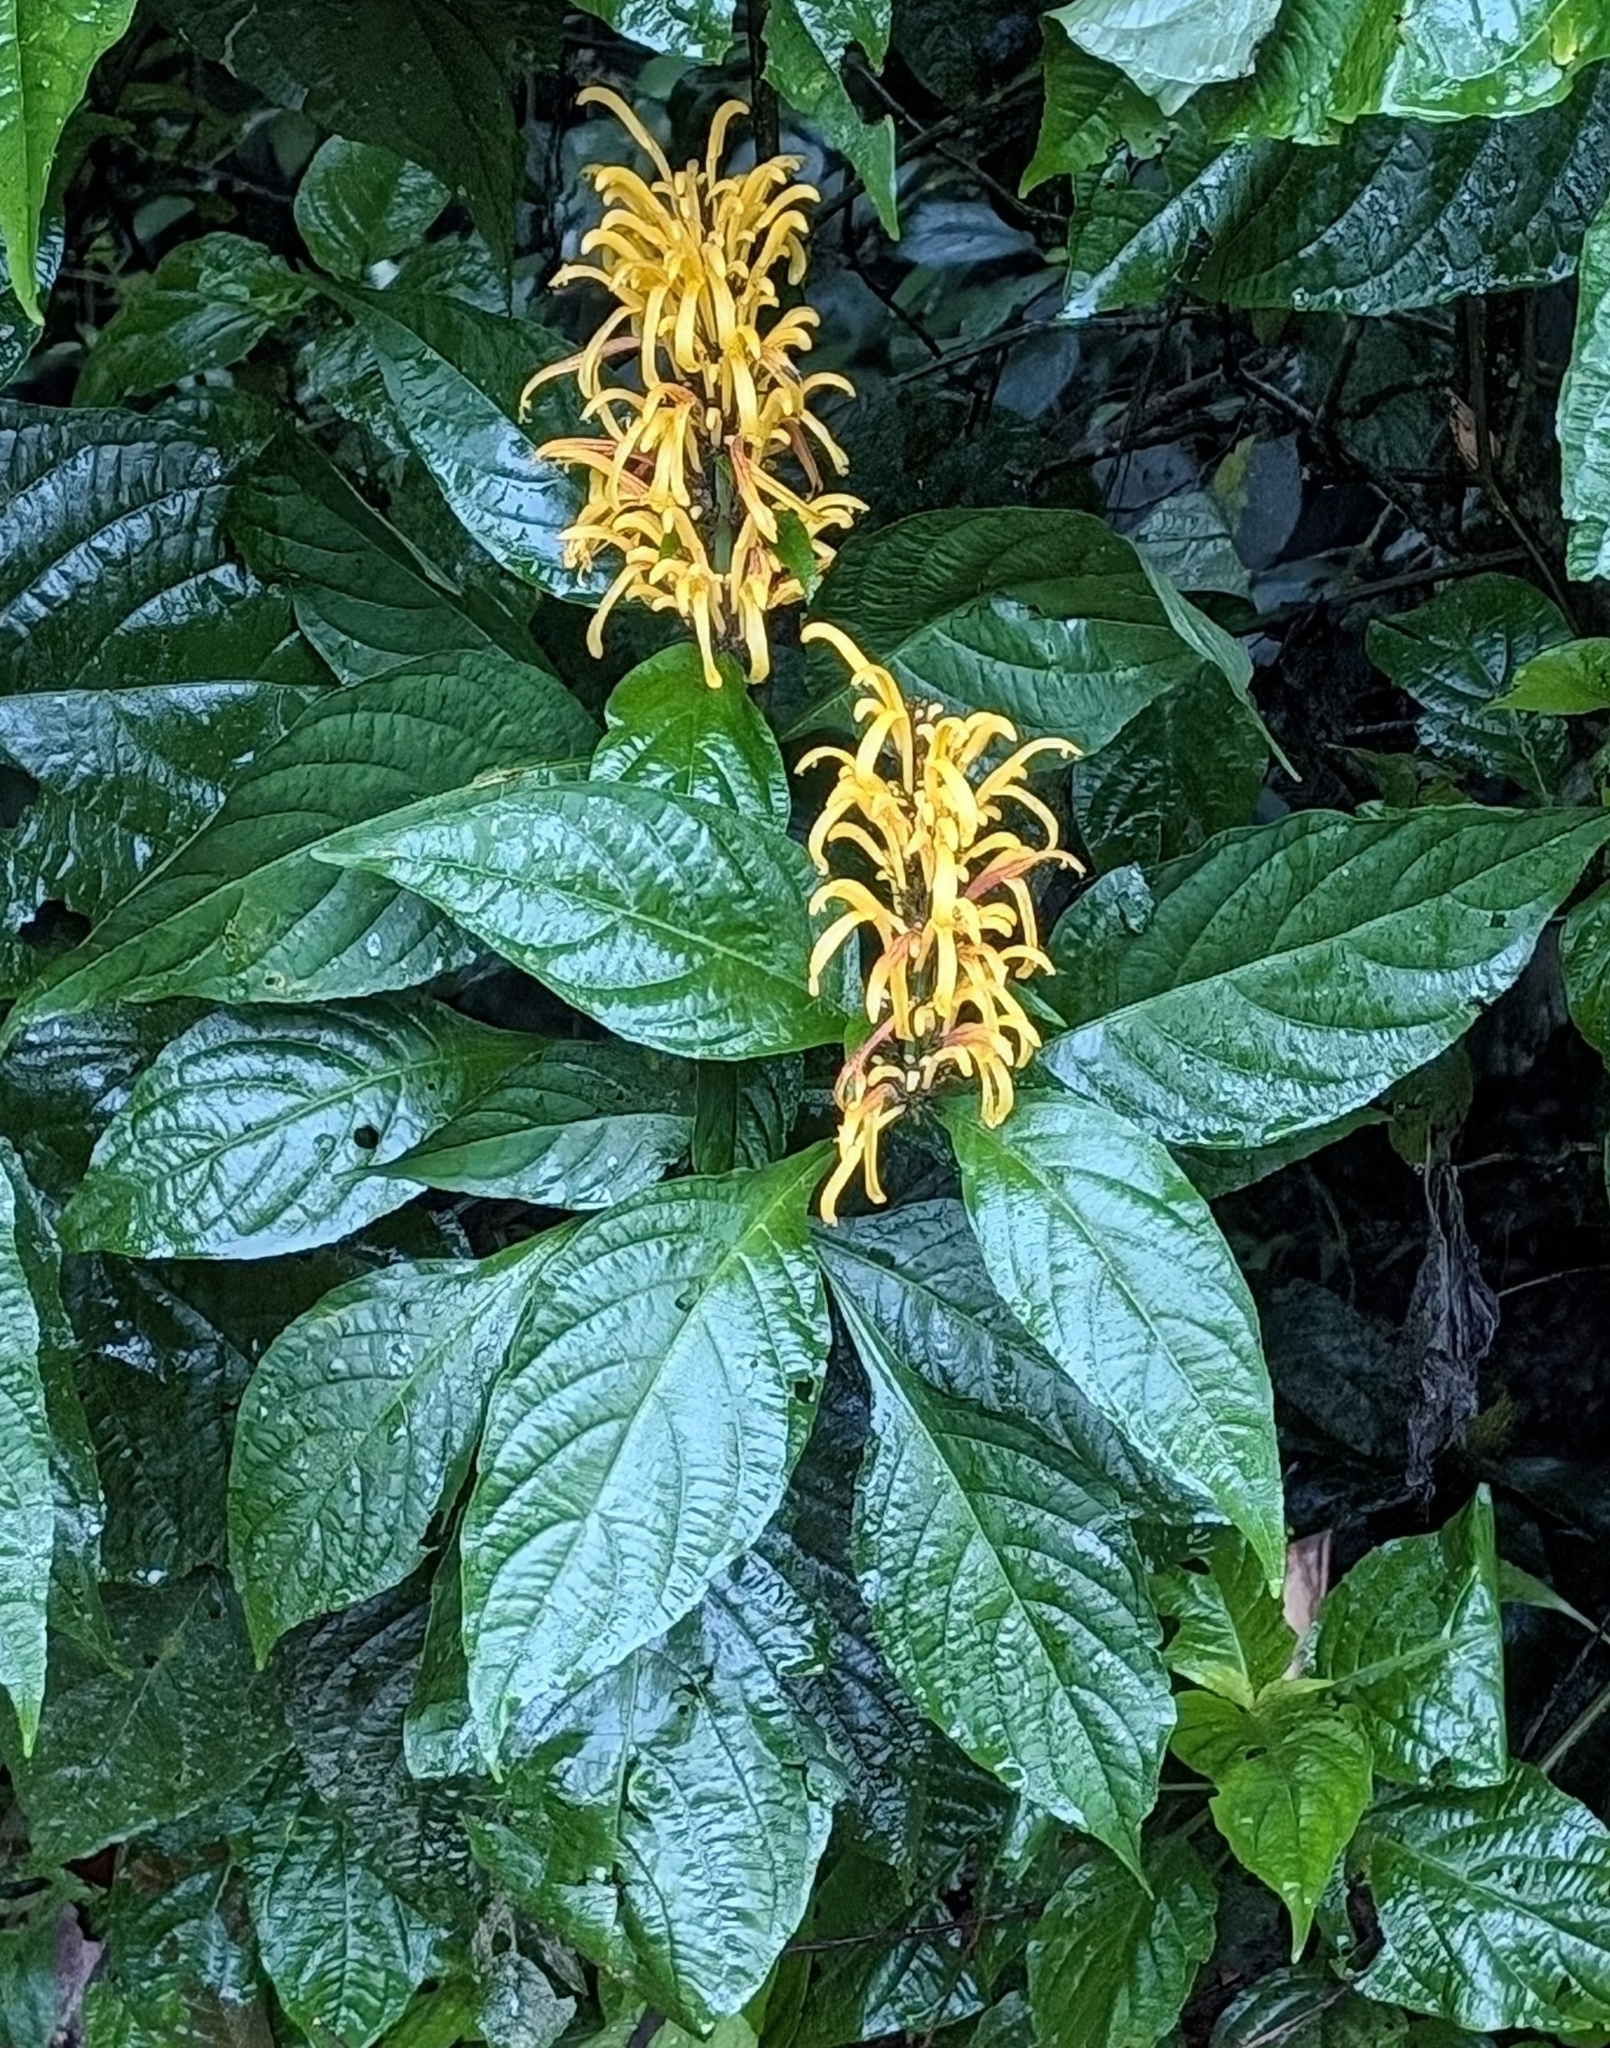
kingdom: Plantae
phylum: Tracheophyta
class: Magnoliopsida
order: Lamiales
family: Acanthaceae
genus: Justicia
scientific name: Justicia aurea
